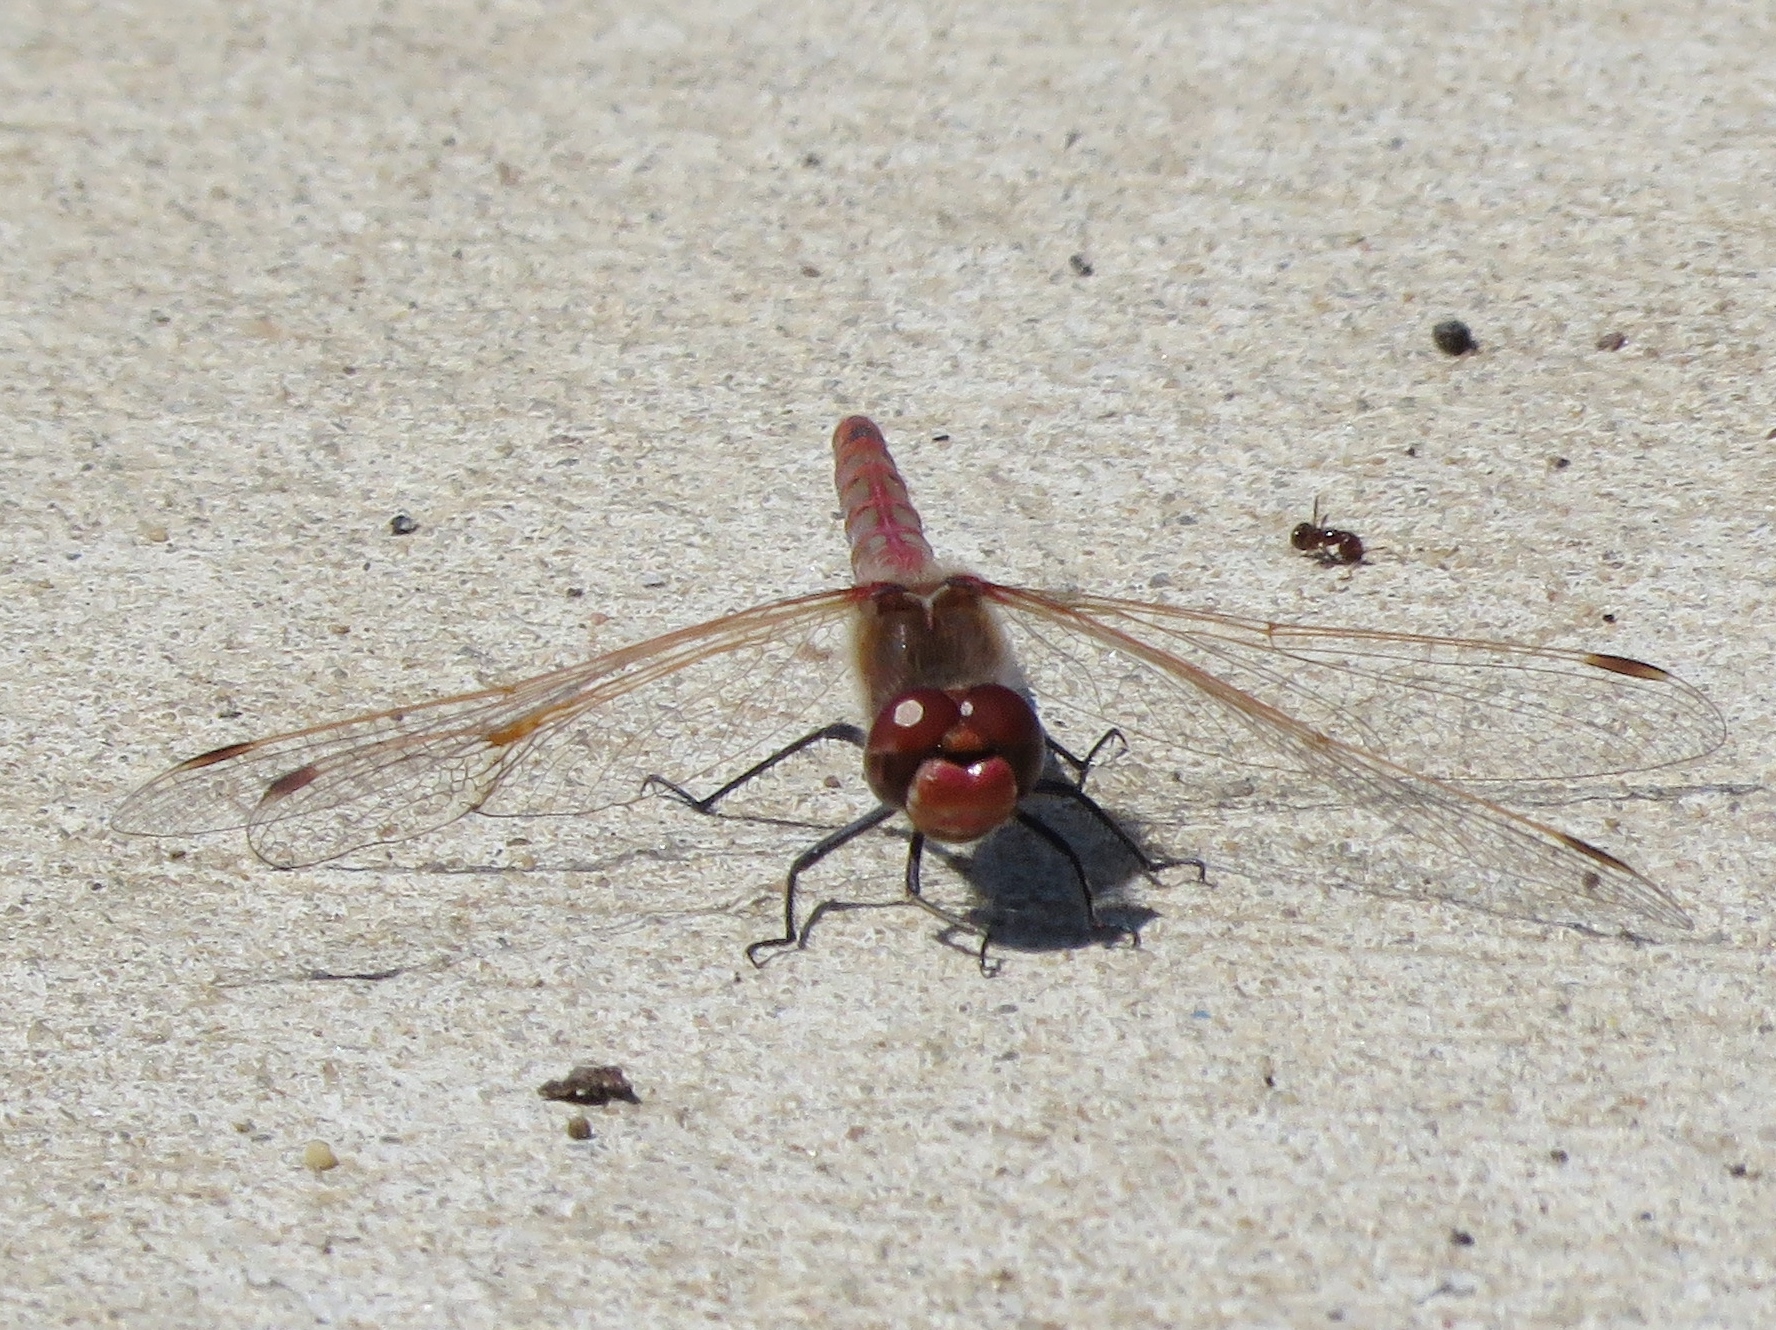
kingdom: Animalia
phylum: Arthropoda
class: Insecta
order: Odonata
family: Libellulidae
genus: Sympetrum
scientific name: Sympetrum corruptum
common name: Variegated meadowhawk
